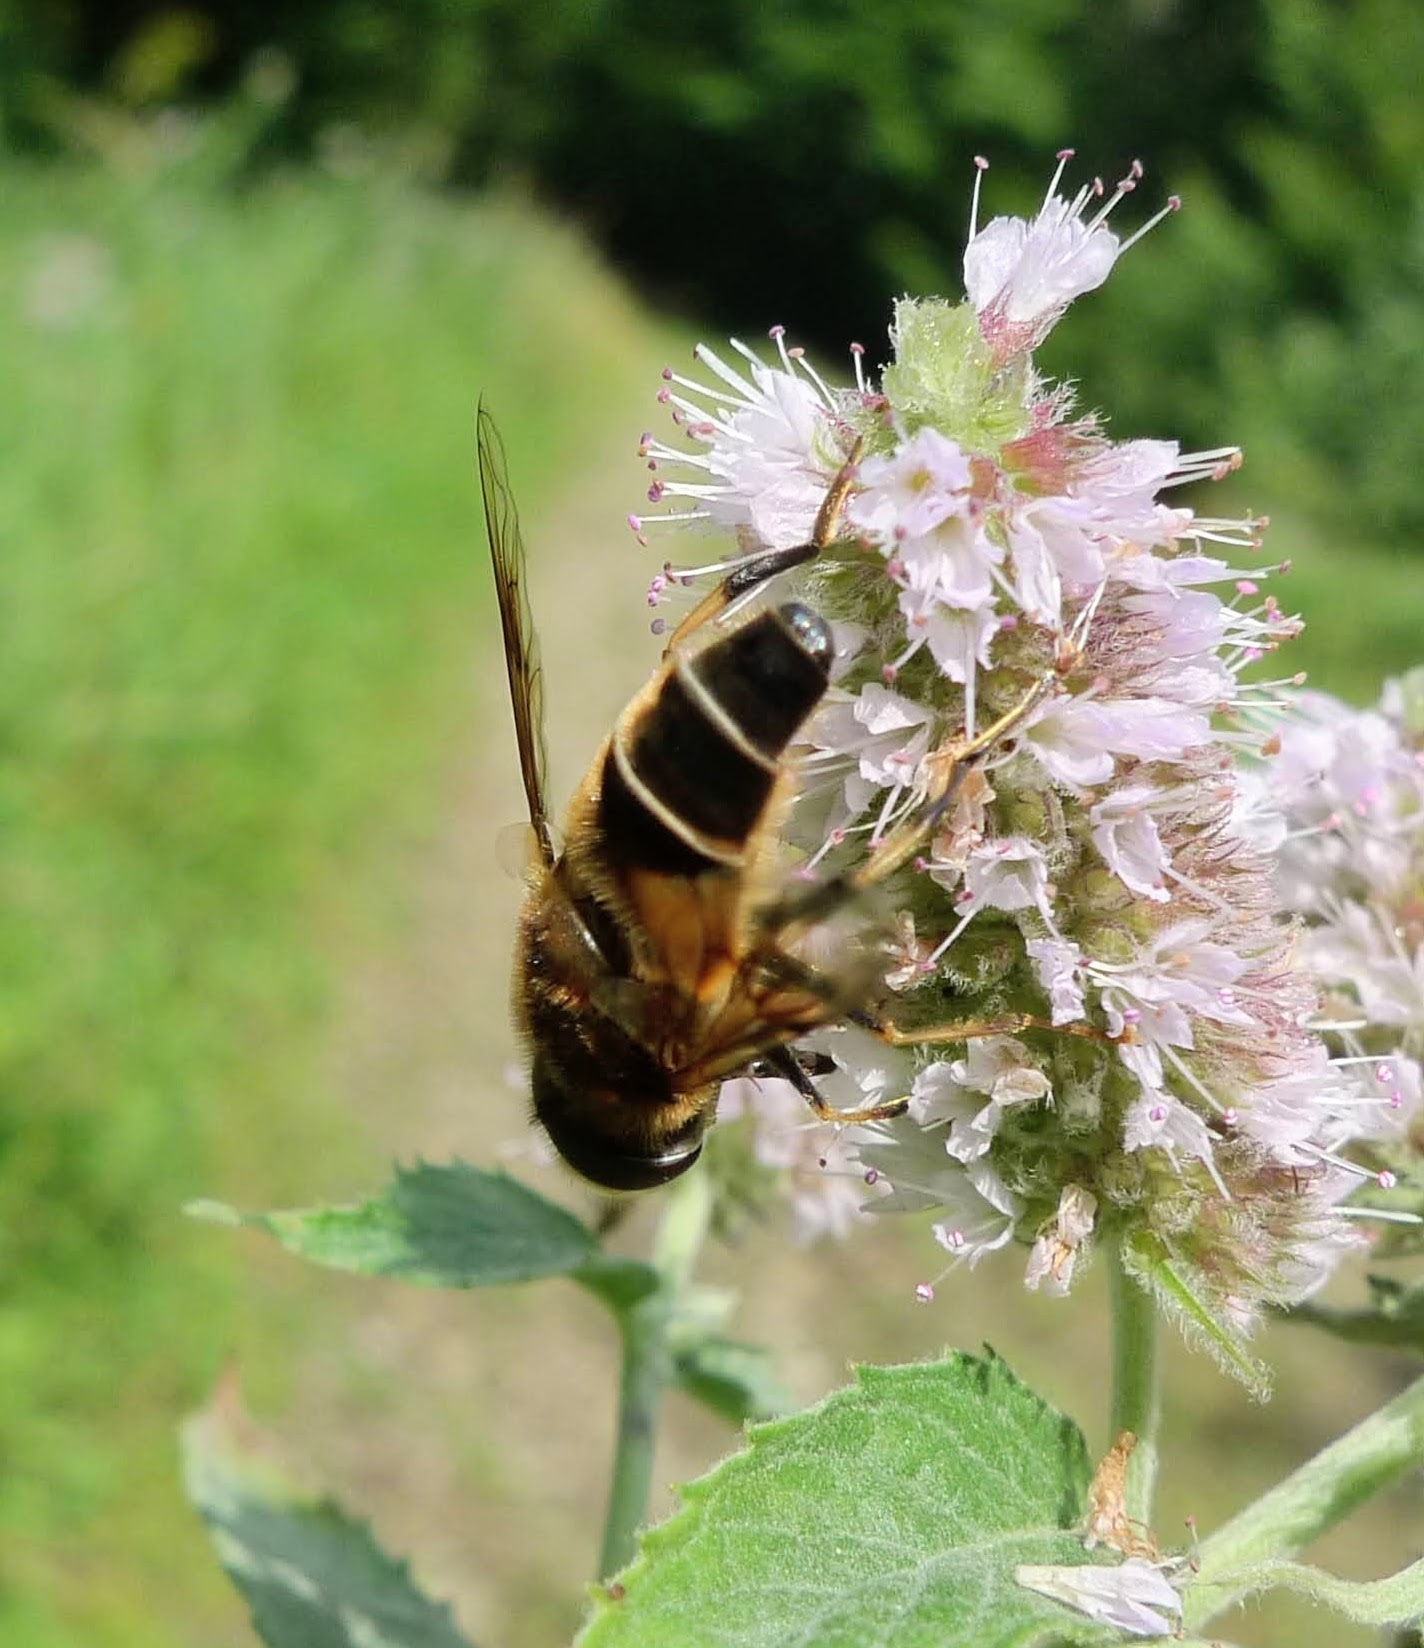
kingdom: Animalia
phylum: Arthropoda
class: Insecta
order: Diptera
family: Syrphidae
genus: Eristalis
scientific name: Eristalis pertinax
